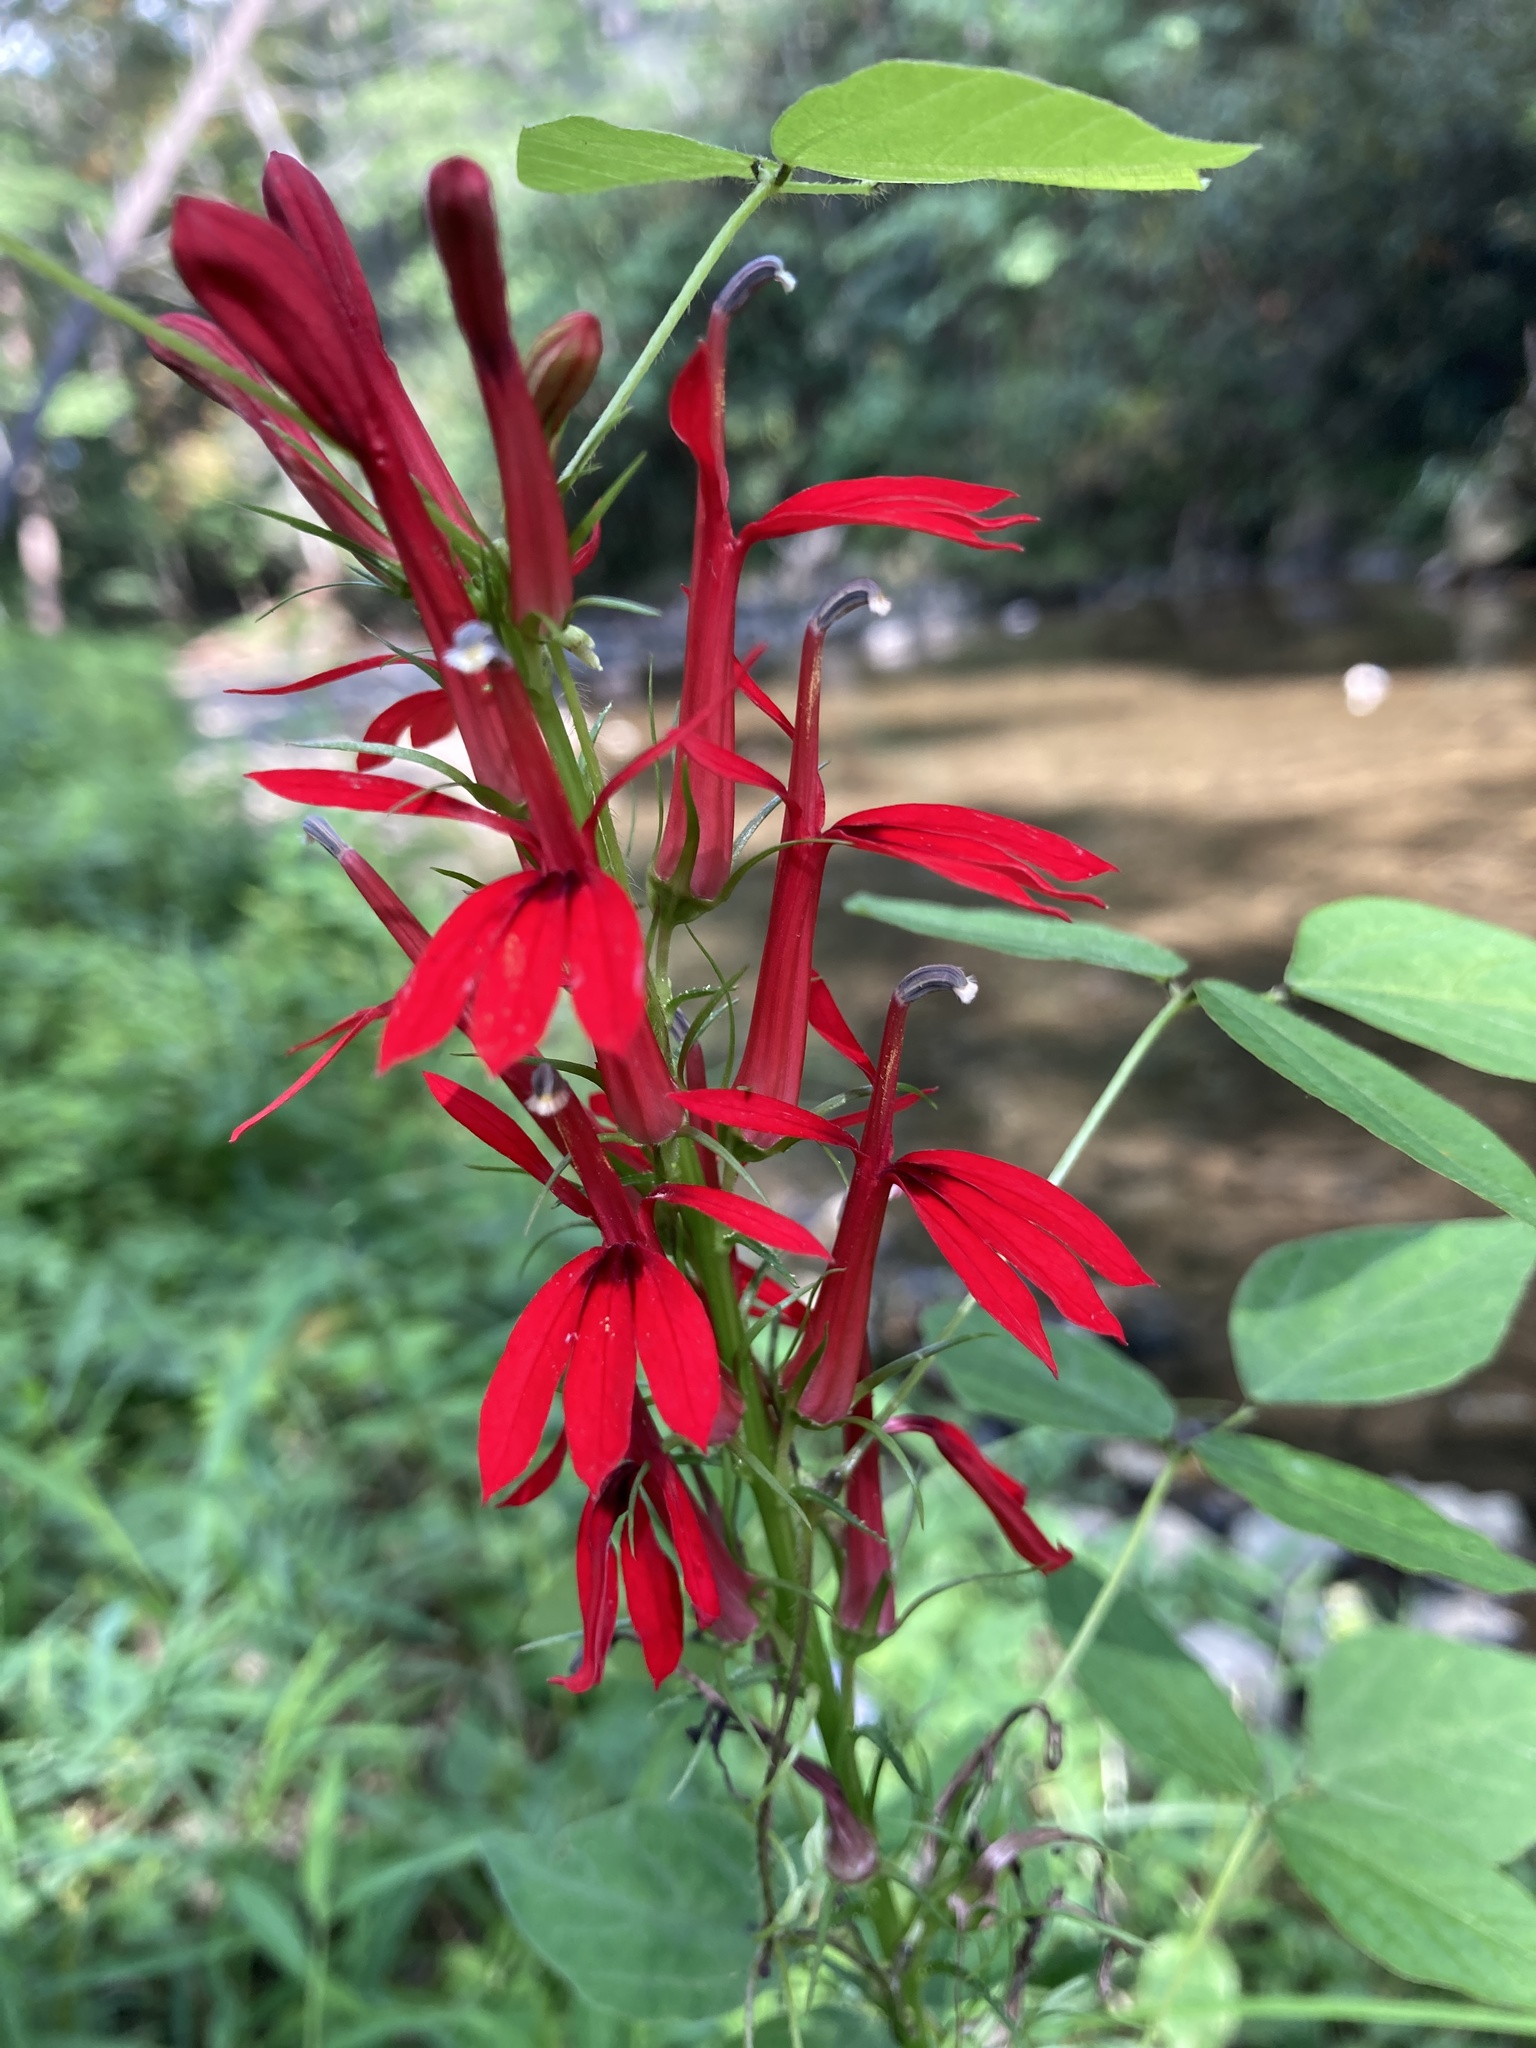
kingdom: Plantae
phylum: Tracheophyta
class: Magnoliopsida
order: Asterales
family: Campanulaceae
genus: Lobelia
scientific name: Lobelia cardinalis
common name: Cardinal flower
